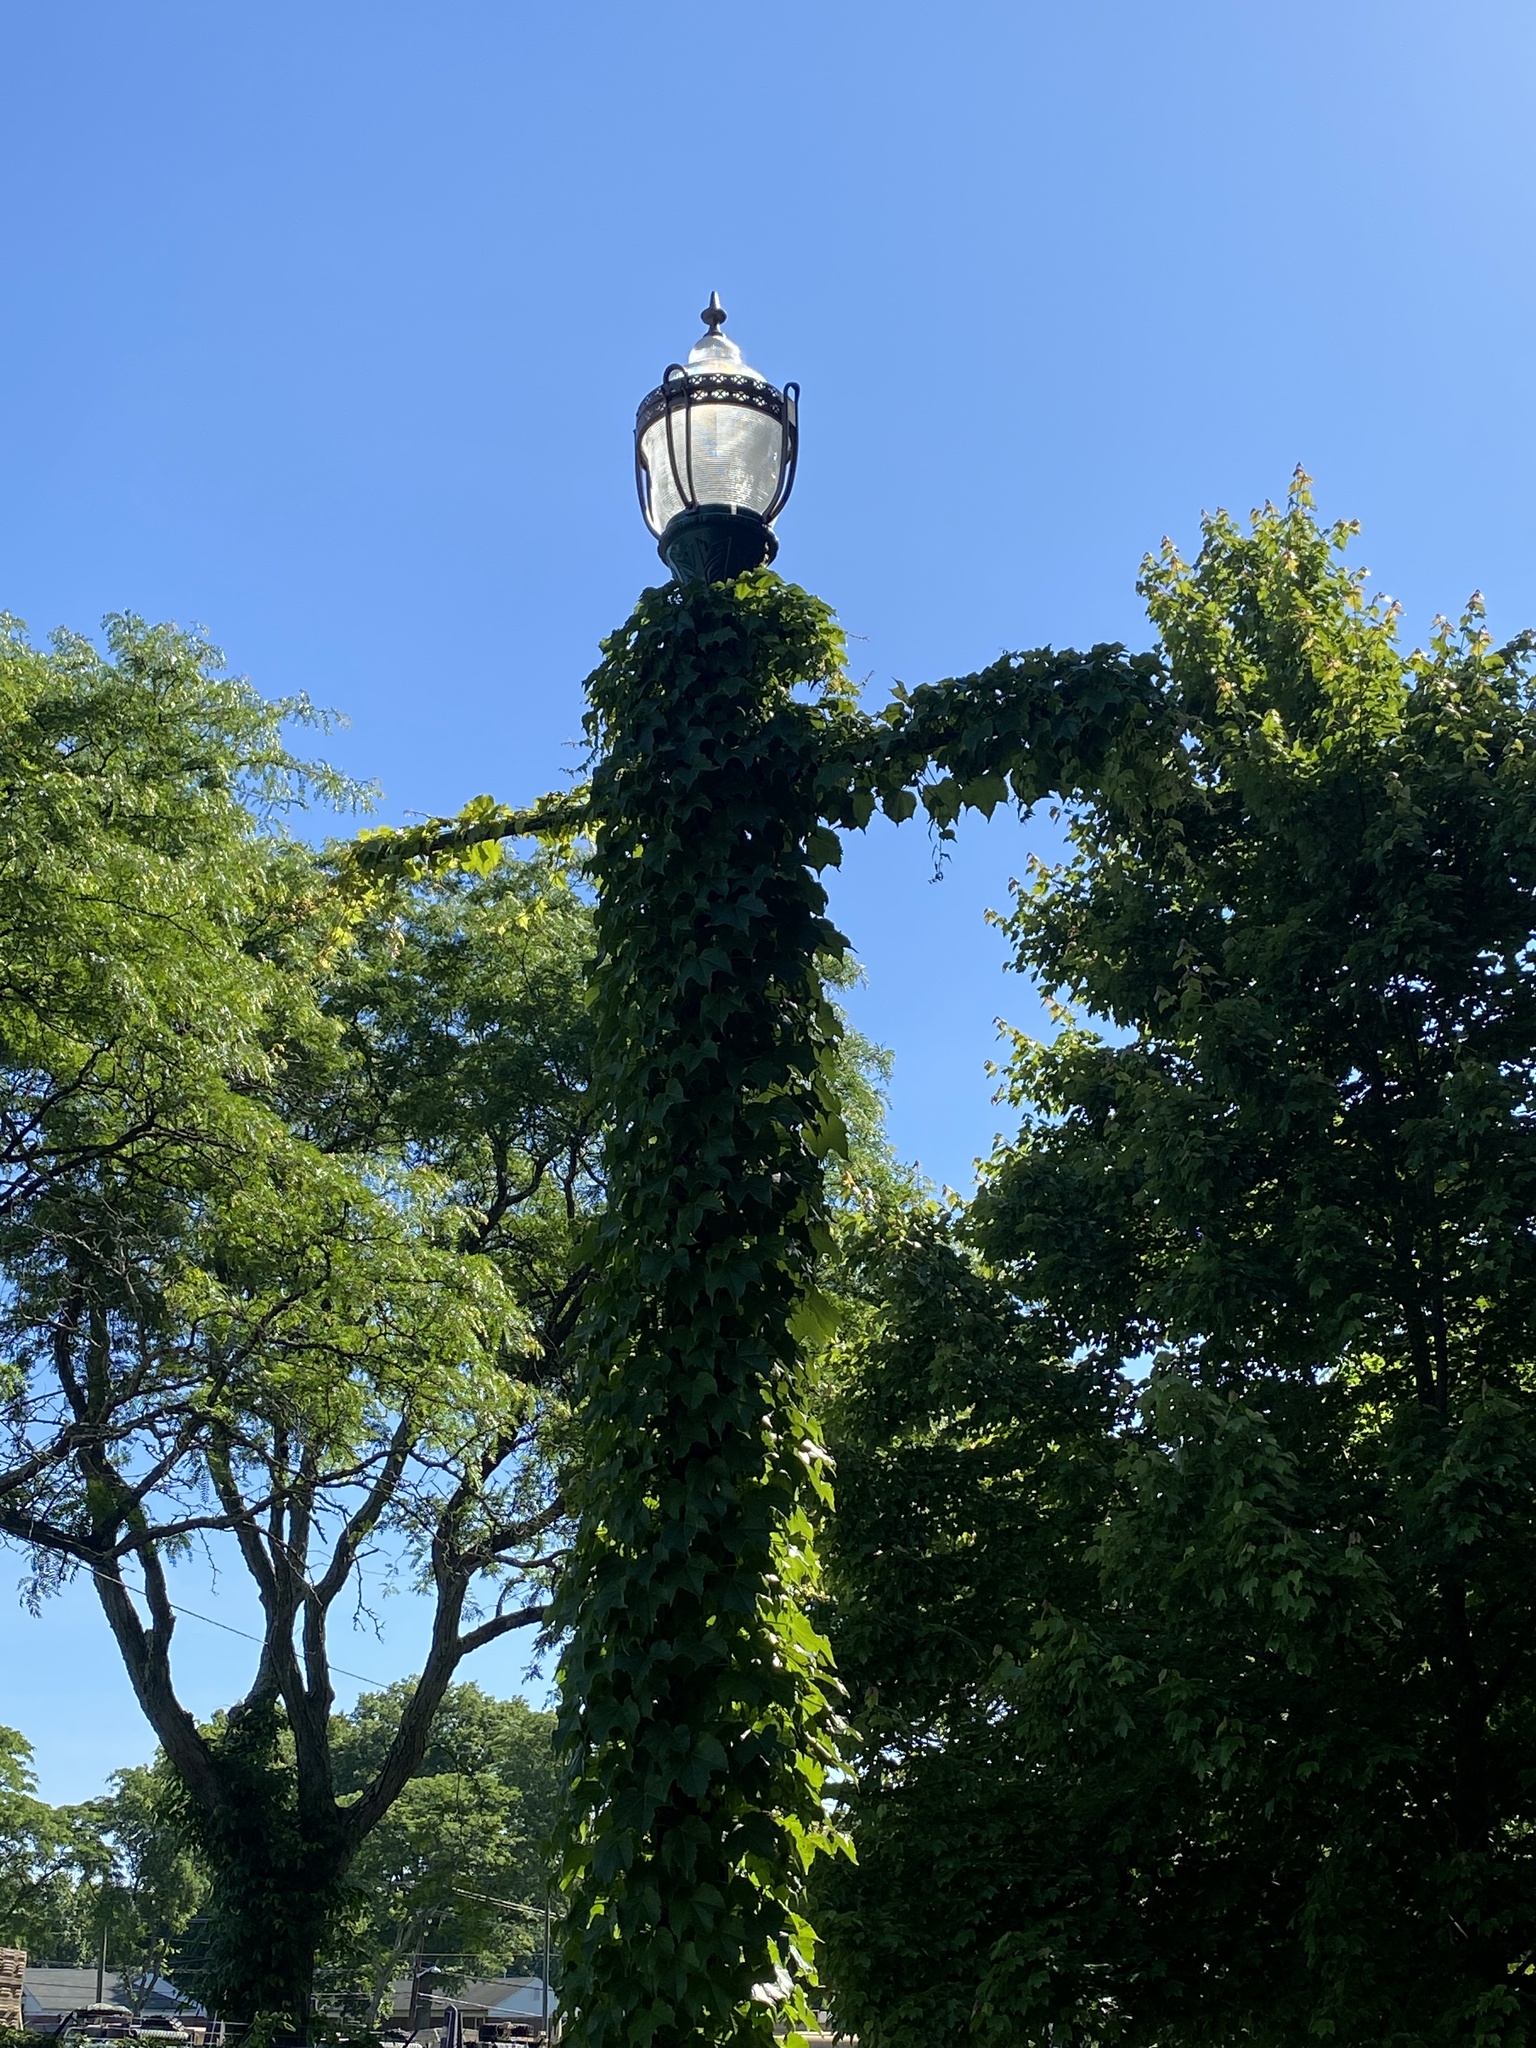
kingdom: Plantae
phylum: Tracheophyta
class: Magnoliopsida
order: Vitales
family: Vitaceae
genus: Parthenocissus
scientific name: Parthenocissus tricuspidata
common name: Boston ivy
